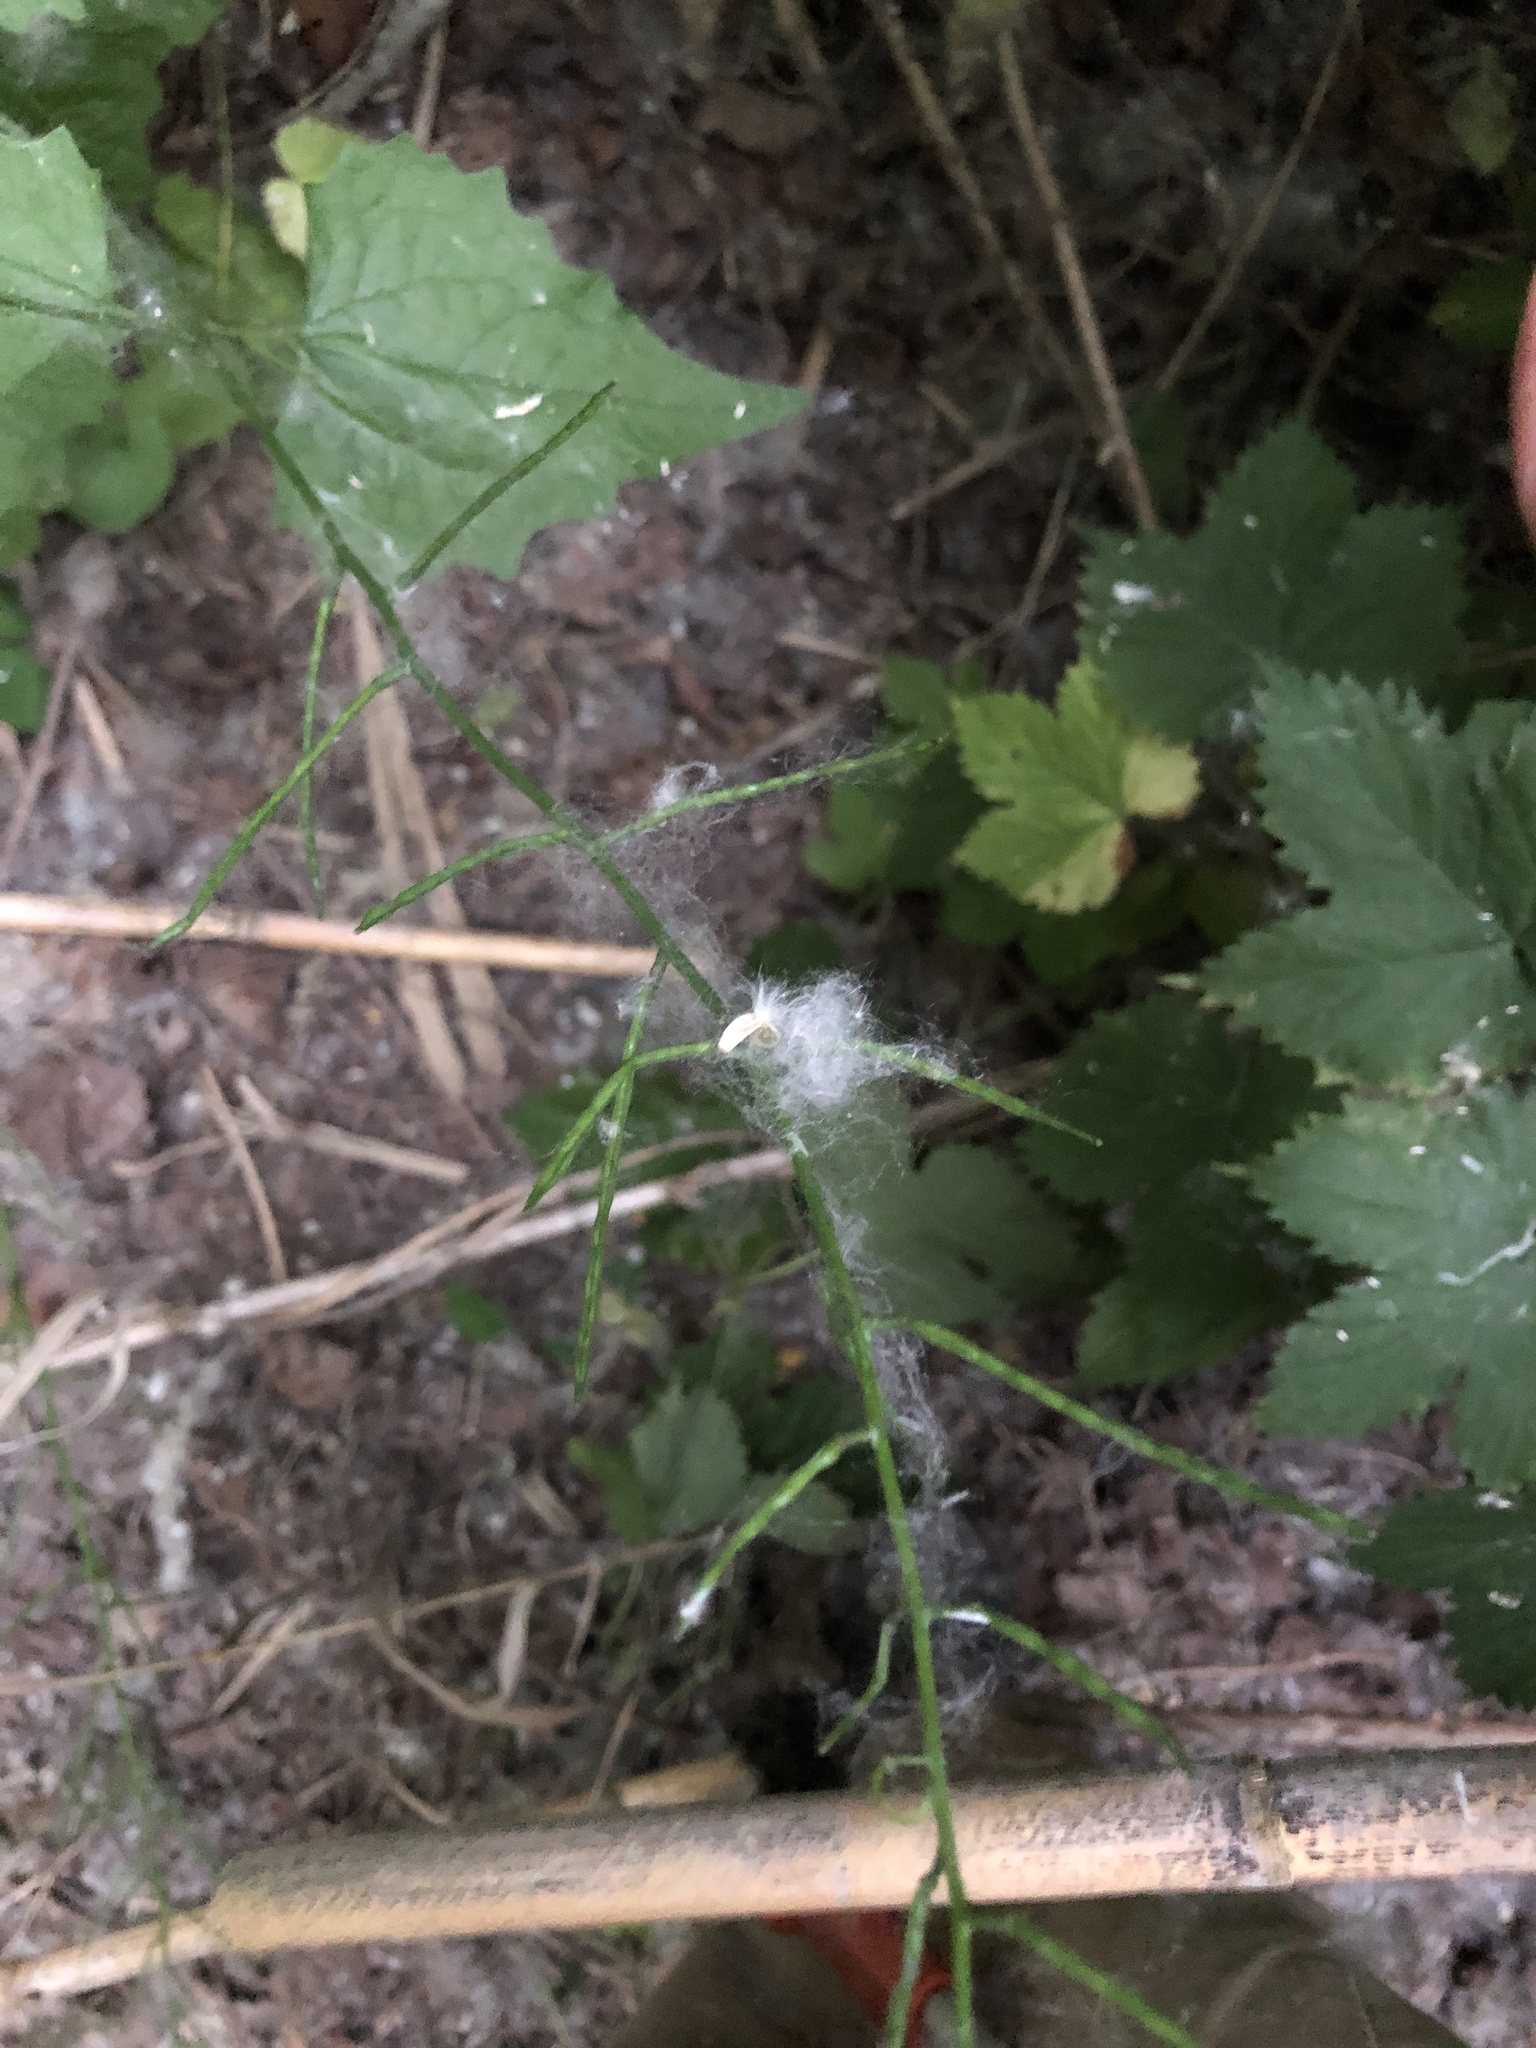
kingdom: Plantae
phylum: Tracheophyta
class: Magnoliopsida
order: Brassicales
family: Brassicaceae
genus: Alliaria
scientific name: Alliaria petiolata
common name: Garlic mustard
